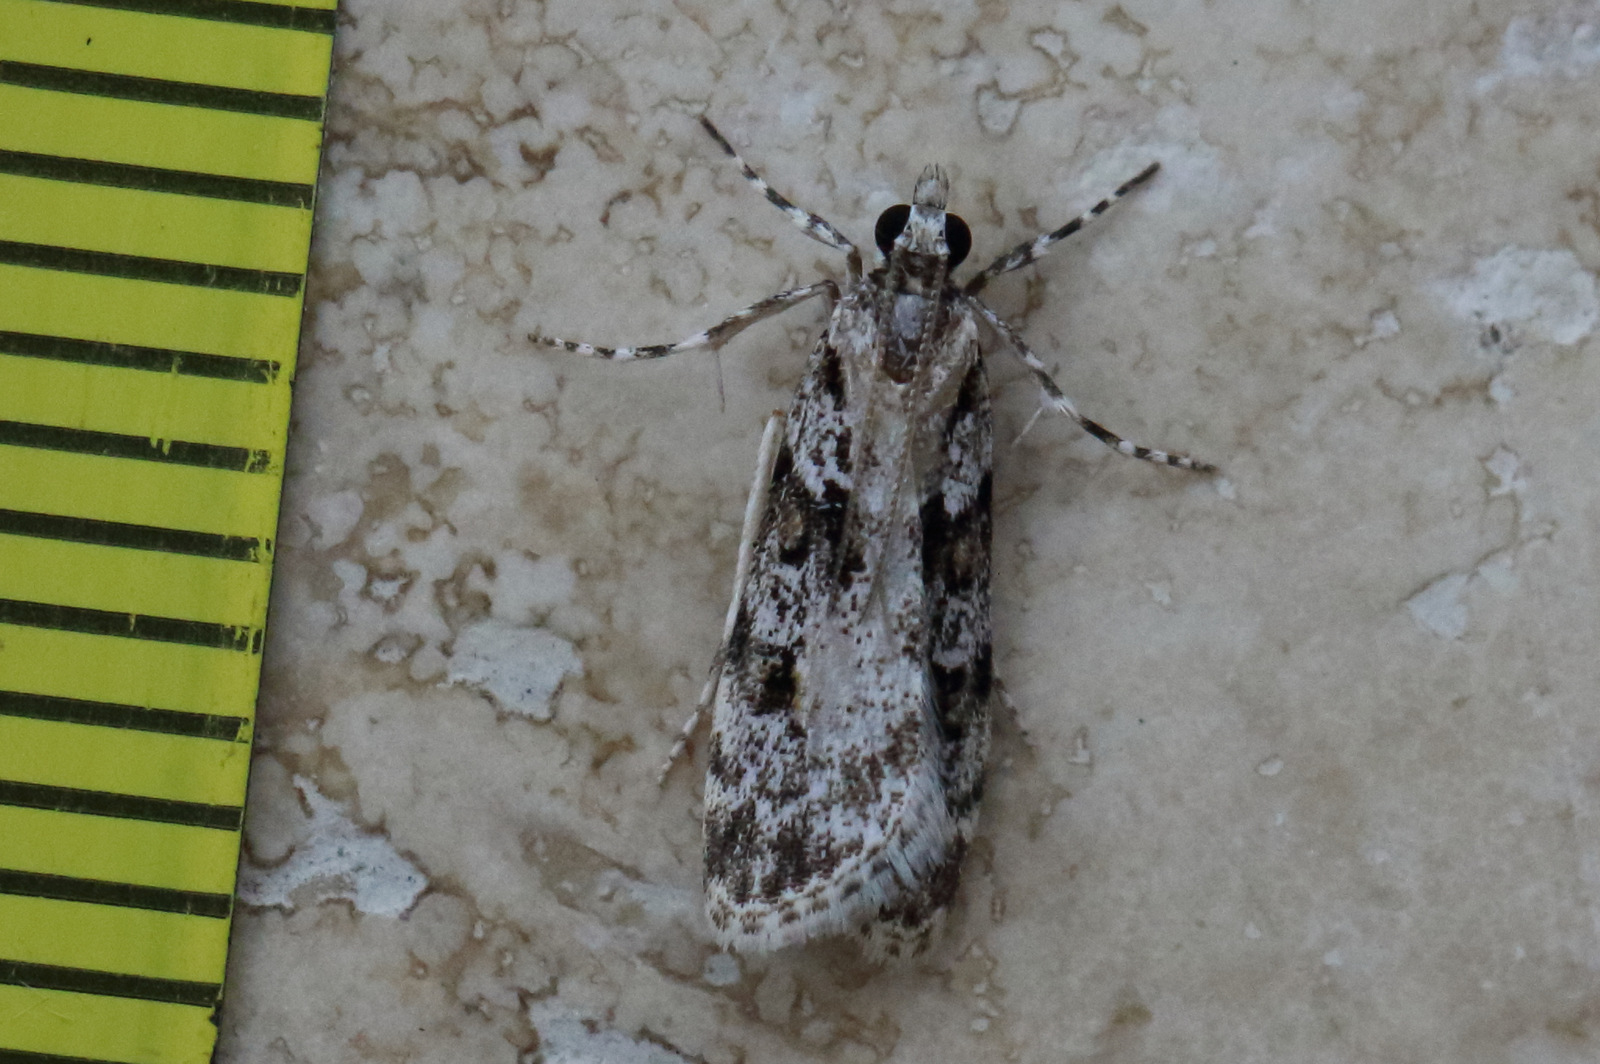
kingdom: Animalia
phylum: Arthropoda
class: Insecta
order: Lepidoptera
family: Crambidae
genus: Scoparia
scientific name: Scoparia chiasta
